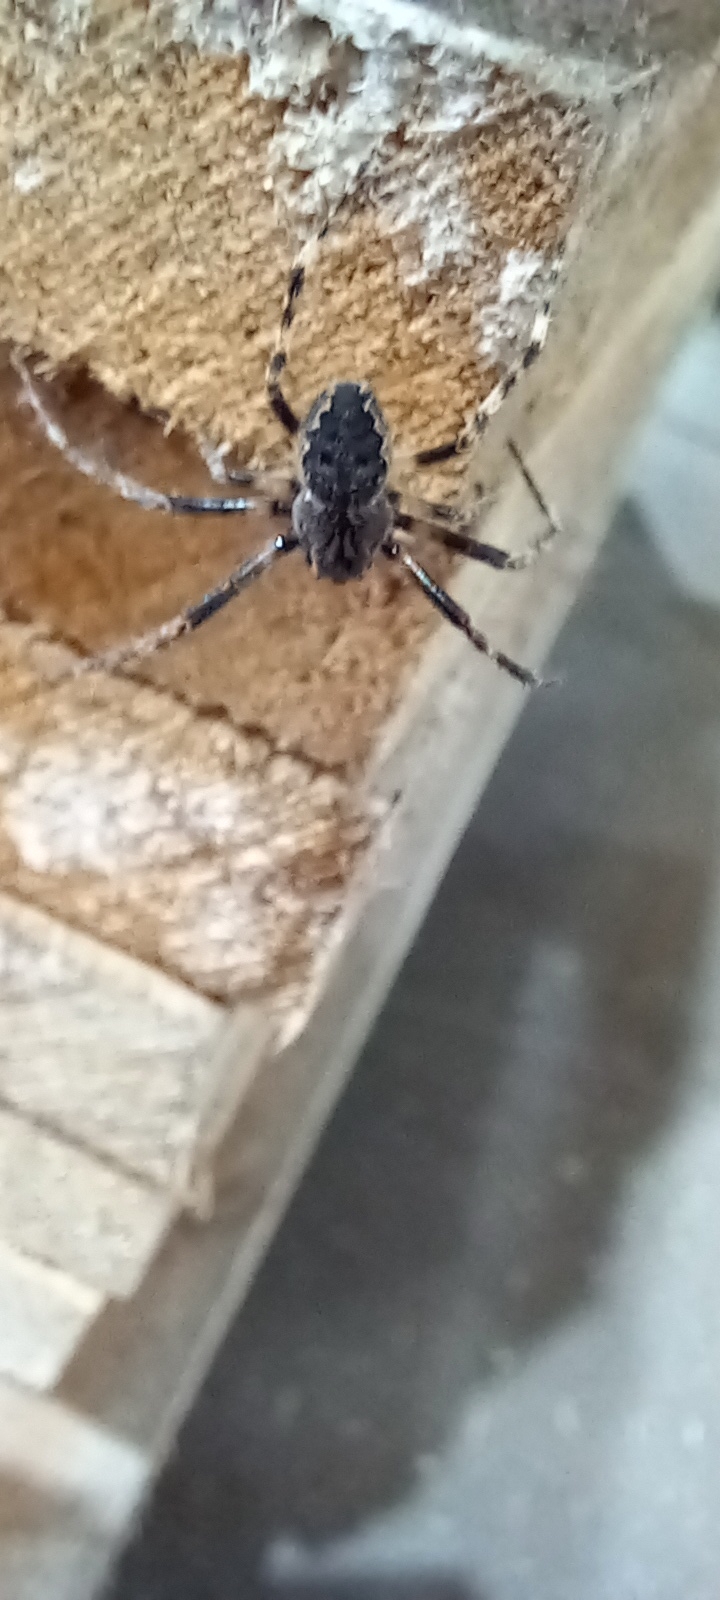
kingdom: Animalia
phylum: Arthropoda
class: Arachnida
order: Araneae
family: Araneidae
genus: Nuctenea
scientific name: Nuctenea umbratica
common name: Toad spider
